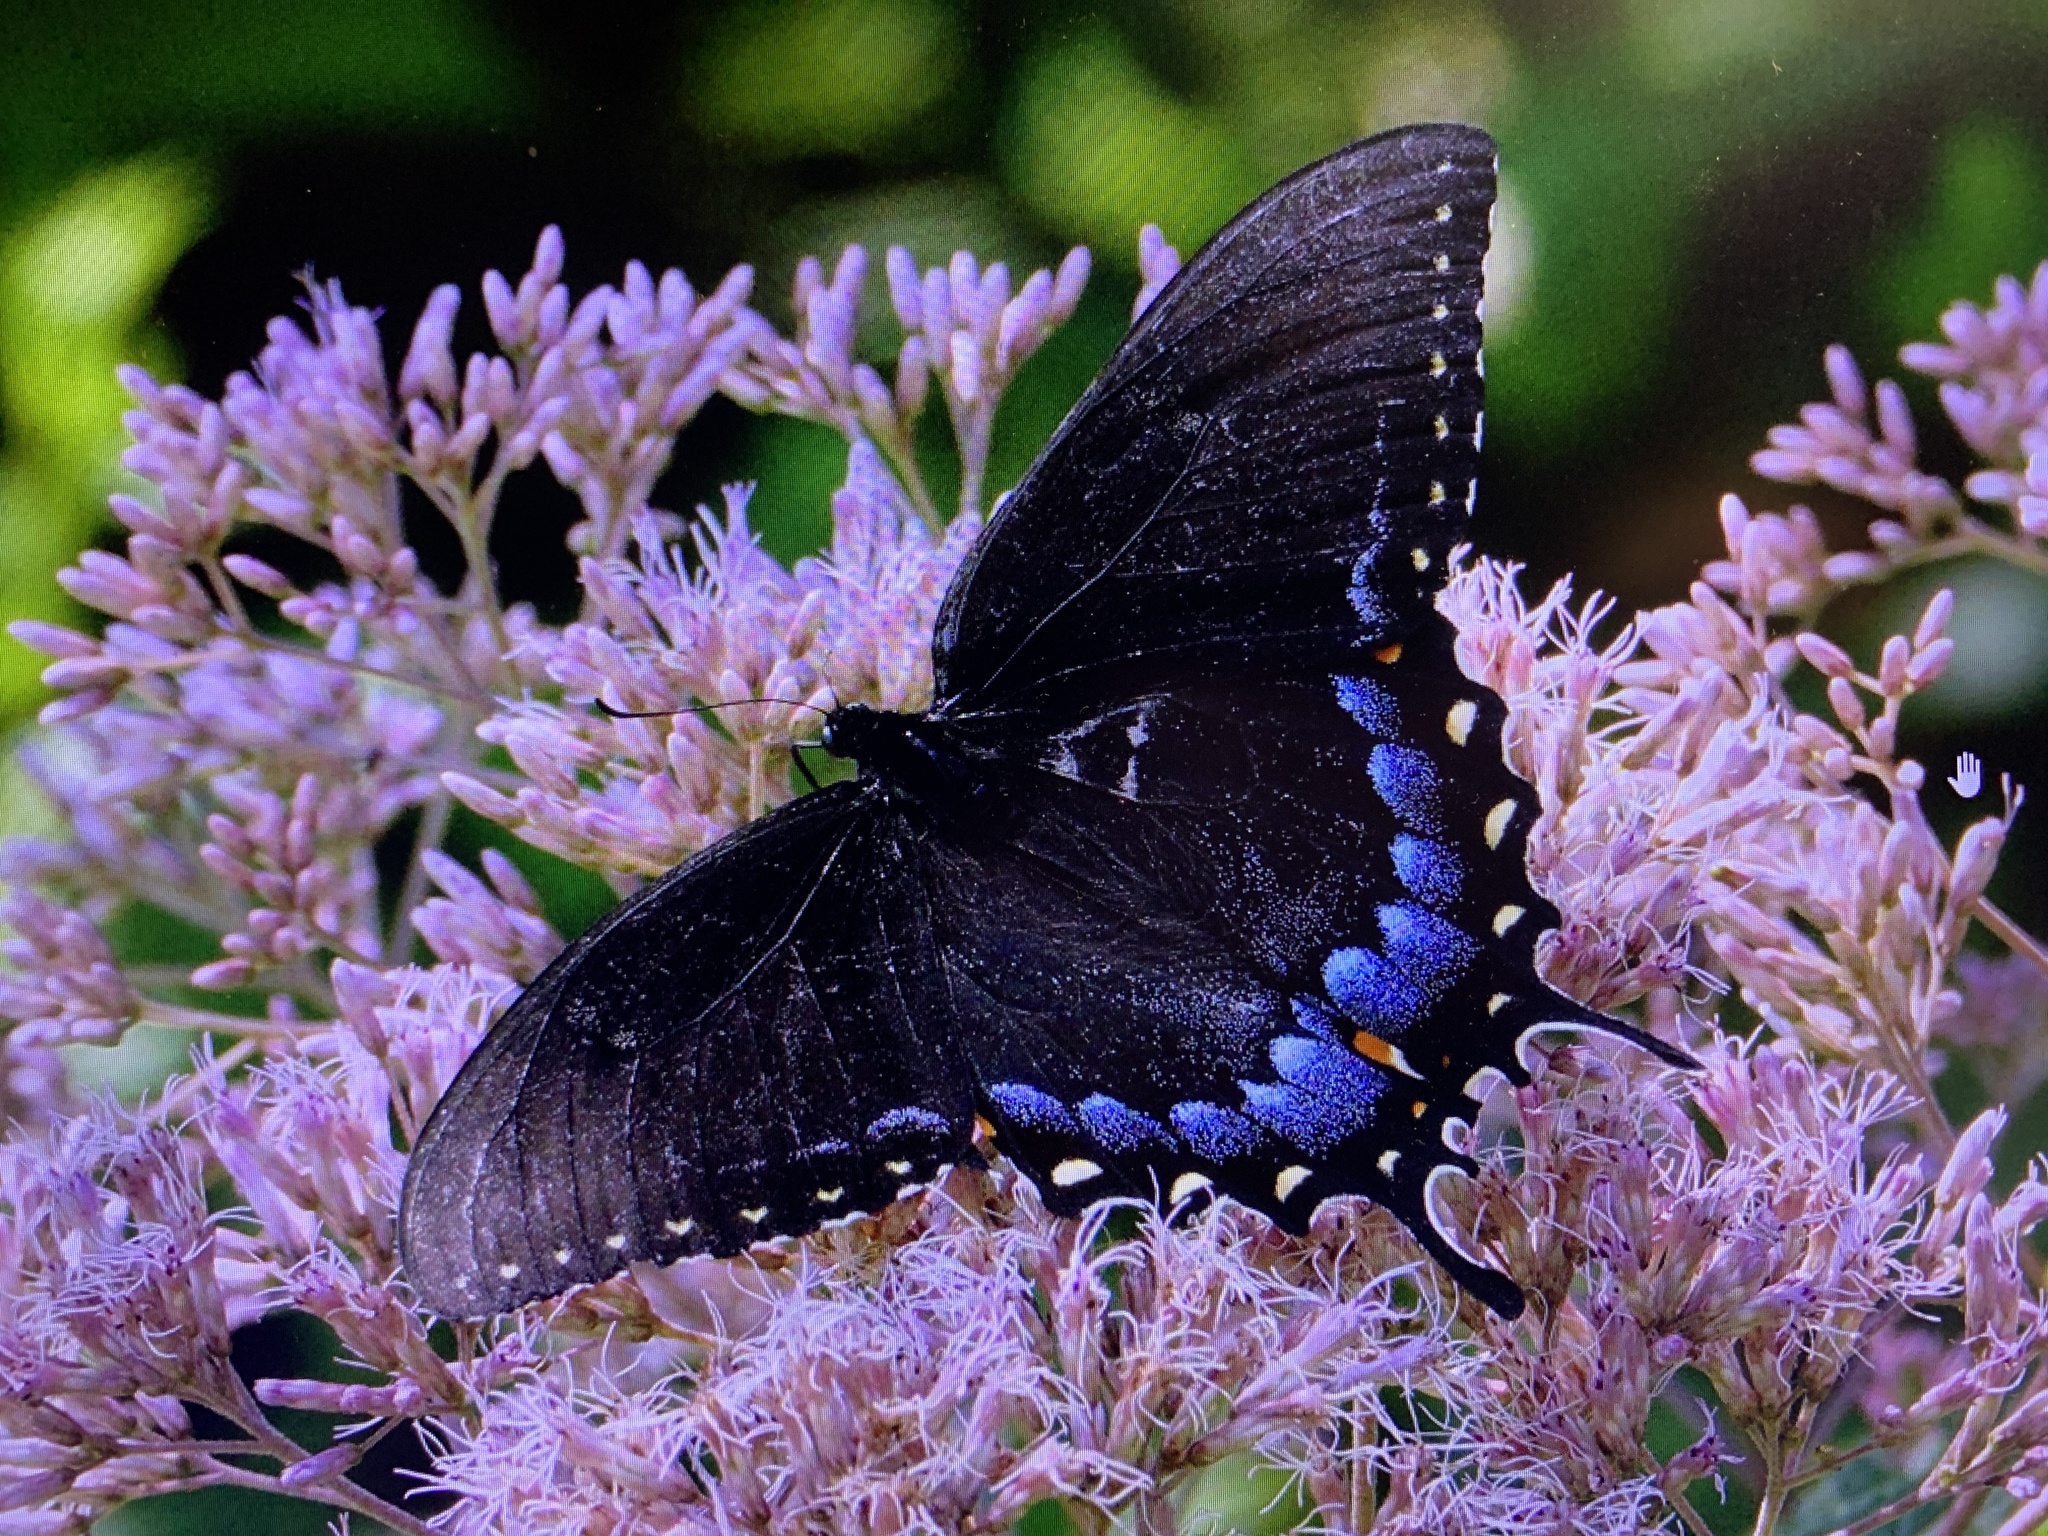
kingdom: Animalia
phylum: Arthropoda
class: Insecta
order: Lepidoptera
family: Papilionidae
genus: Papilio
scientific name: Papilio glaucus
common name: Tiger swallowtail
